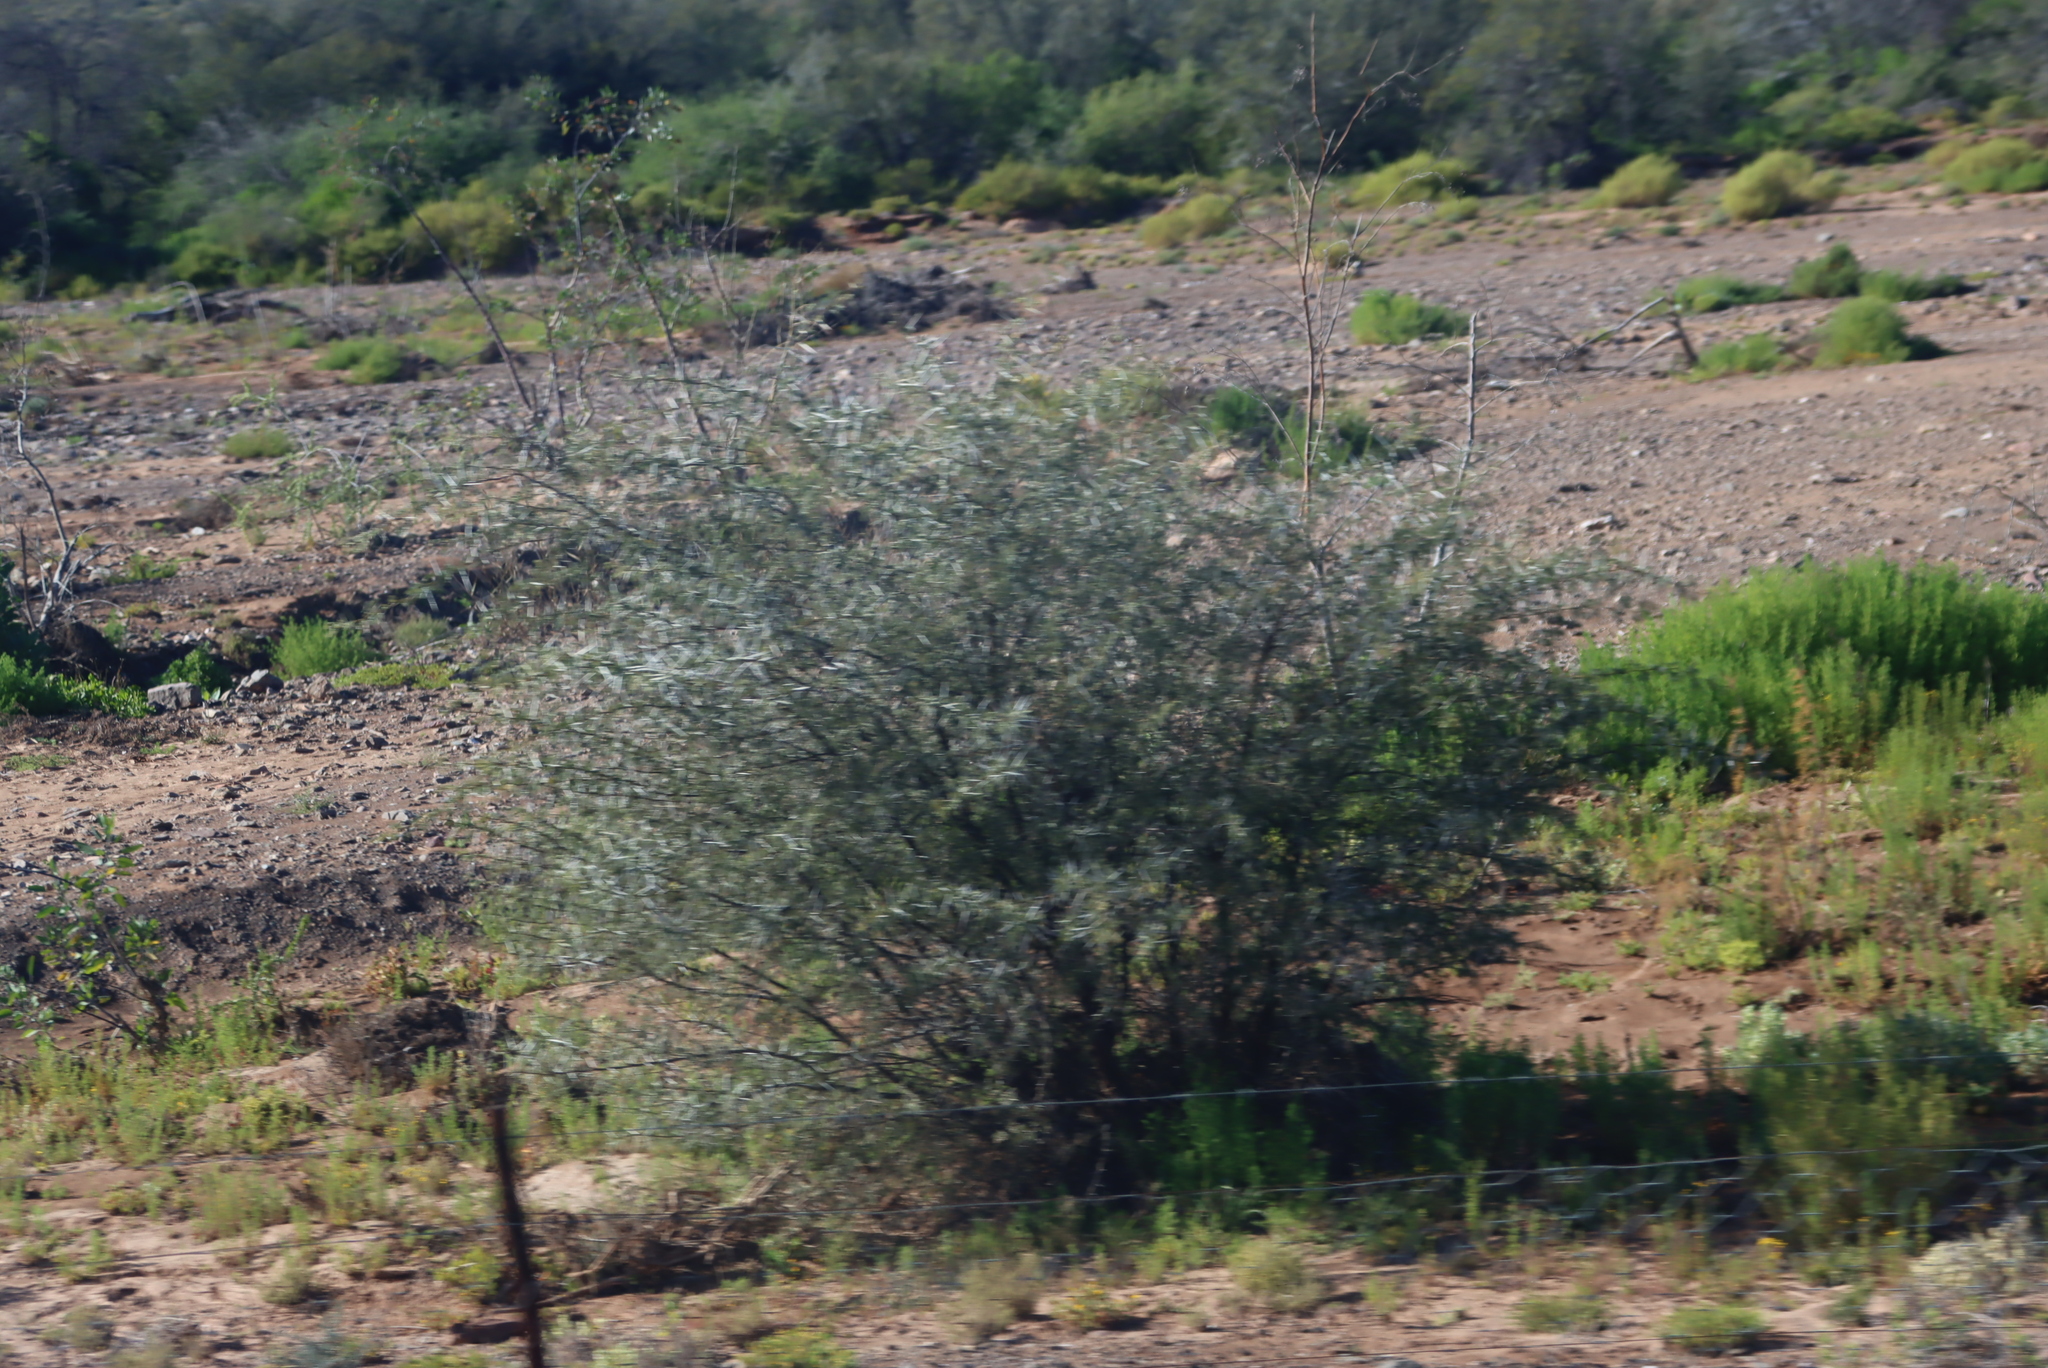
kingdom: Plantae
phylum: Tracheophyta
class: Magnoliopsida
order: Fabales
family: Fabaceae
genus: Vachellia
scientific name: Vachellia karroo
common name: Sweet thorn
